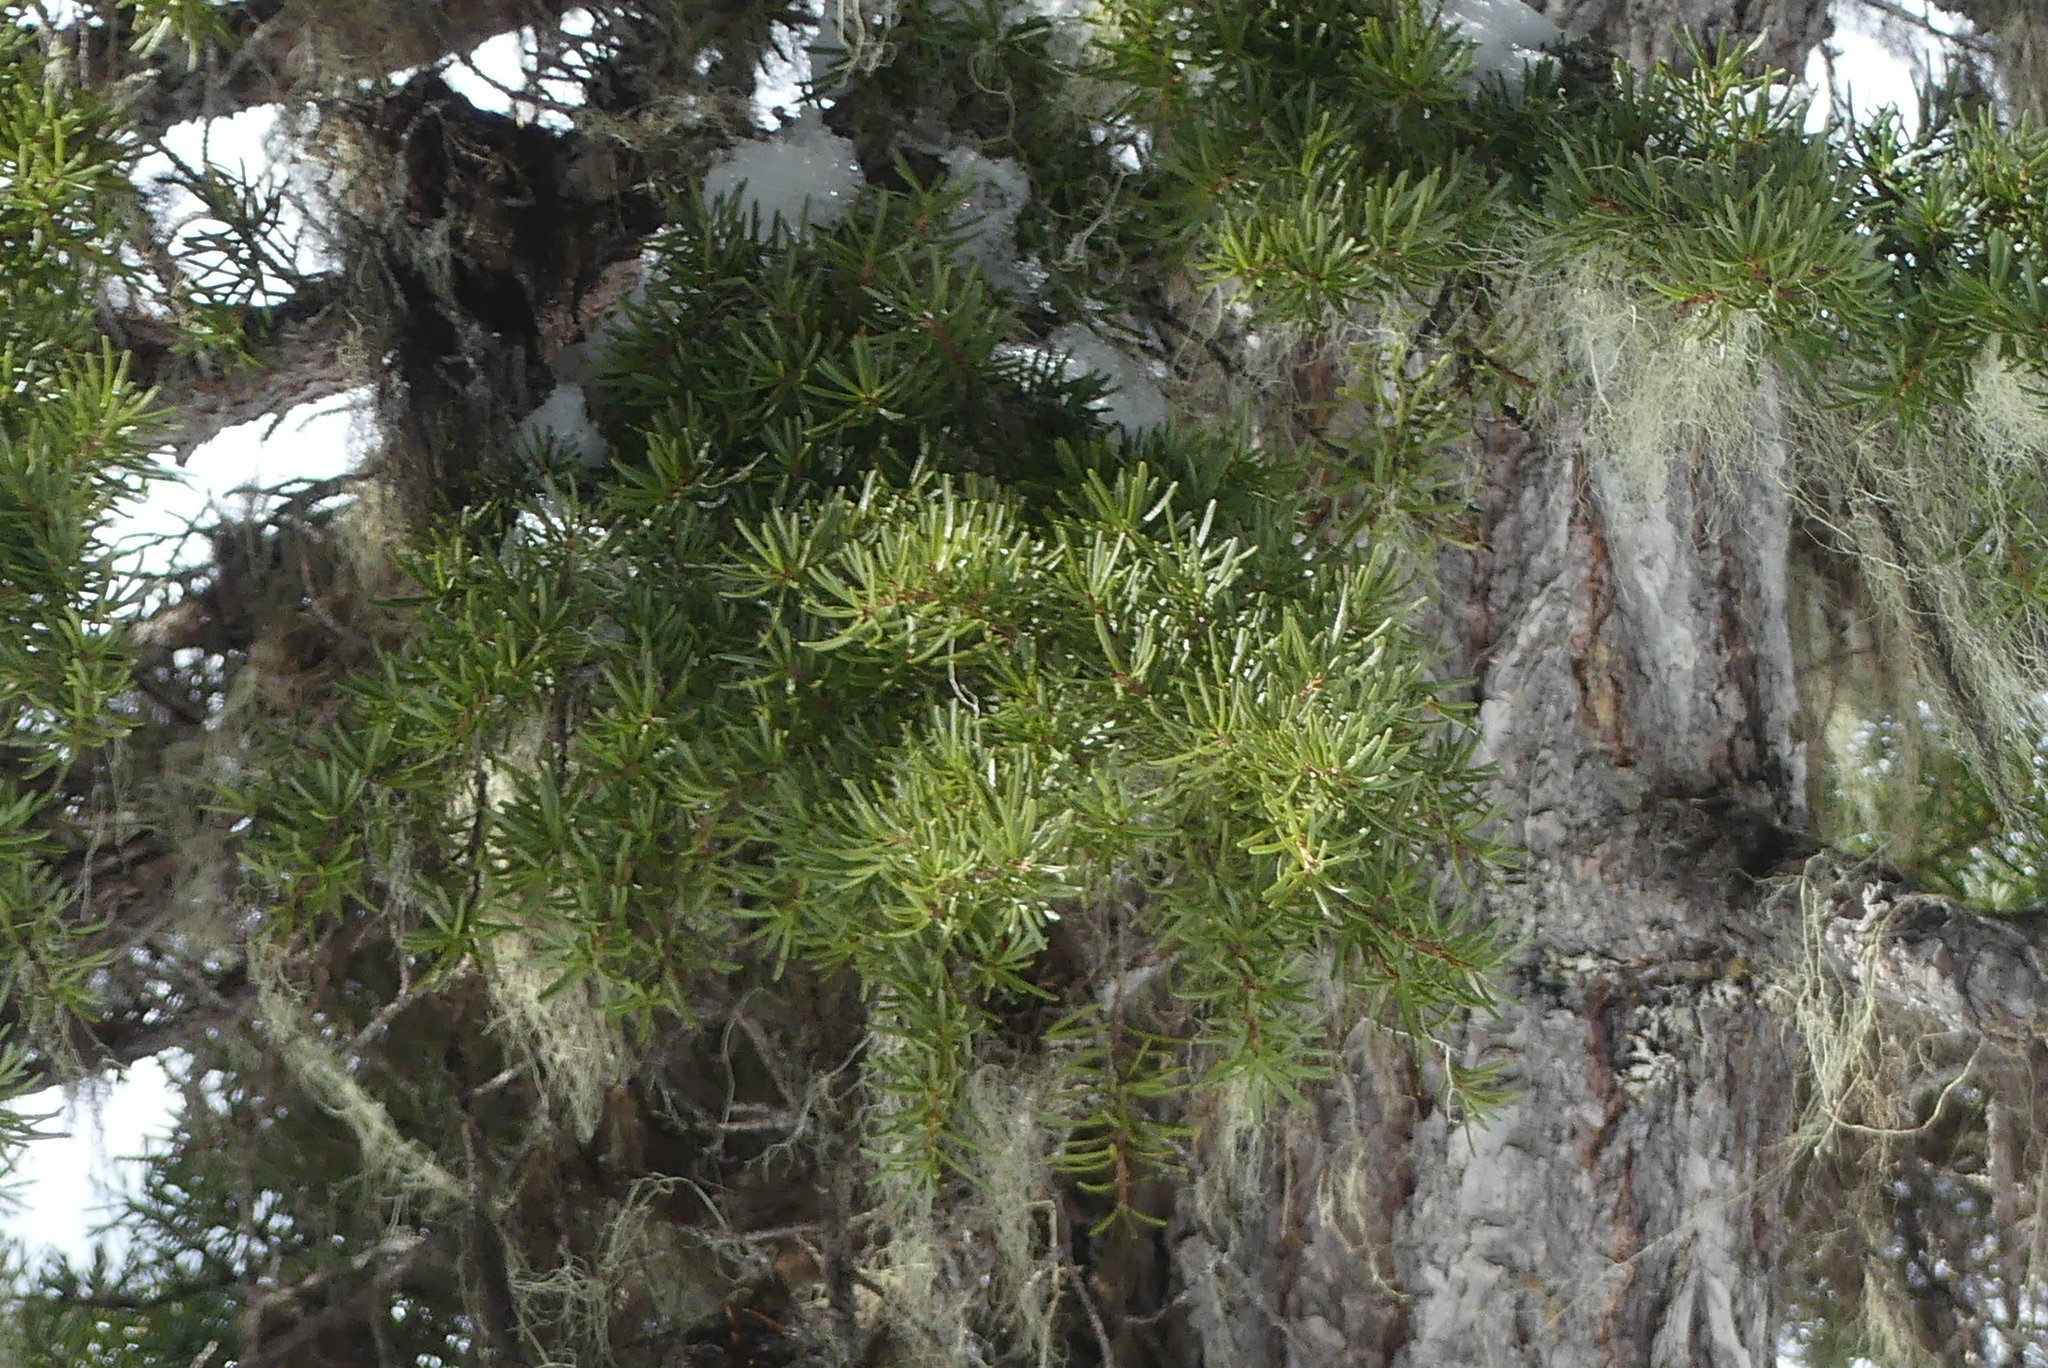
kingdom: Plantae
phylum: Tracheophyta
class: Pinopsida
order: Pinales
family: Pinaceae
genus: Tsuga
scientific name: Tsuga mertensiana
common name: Mountain hemlock
